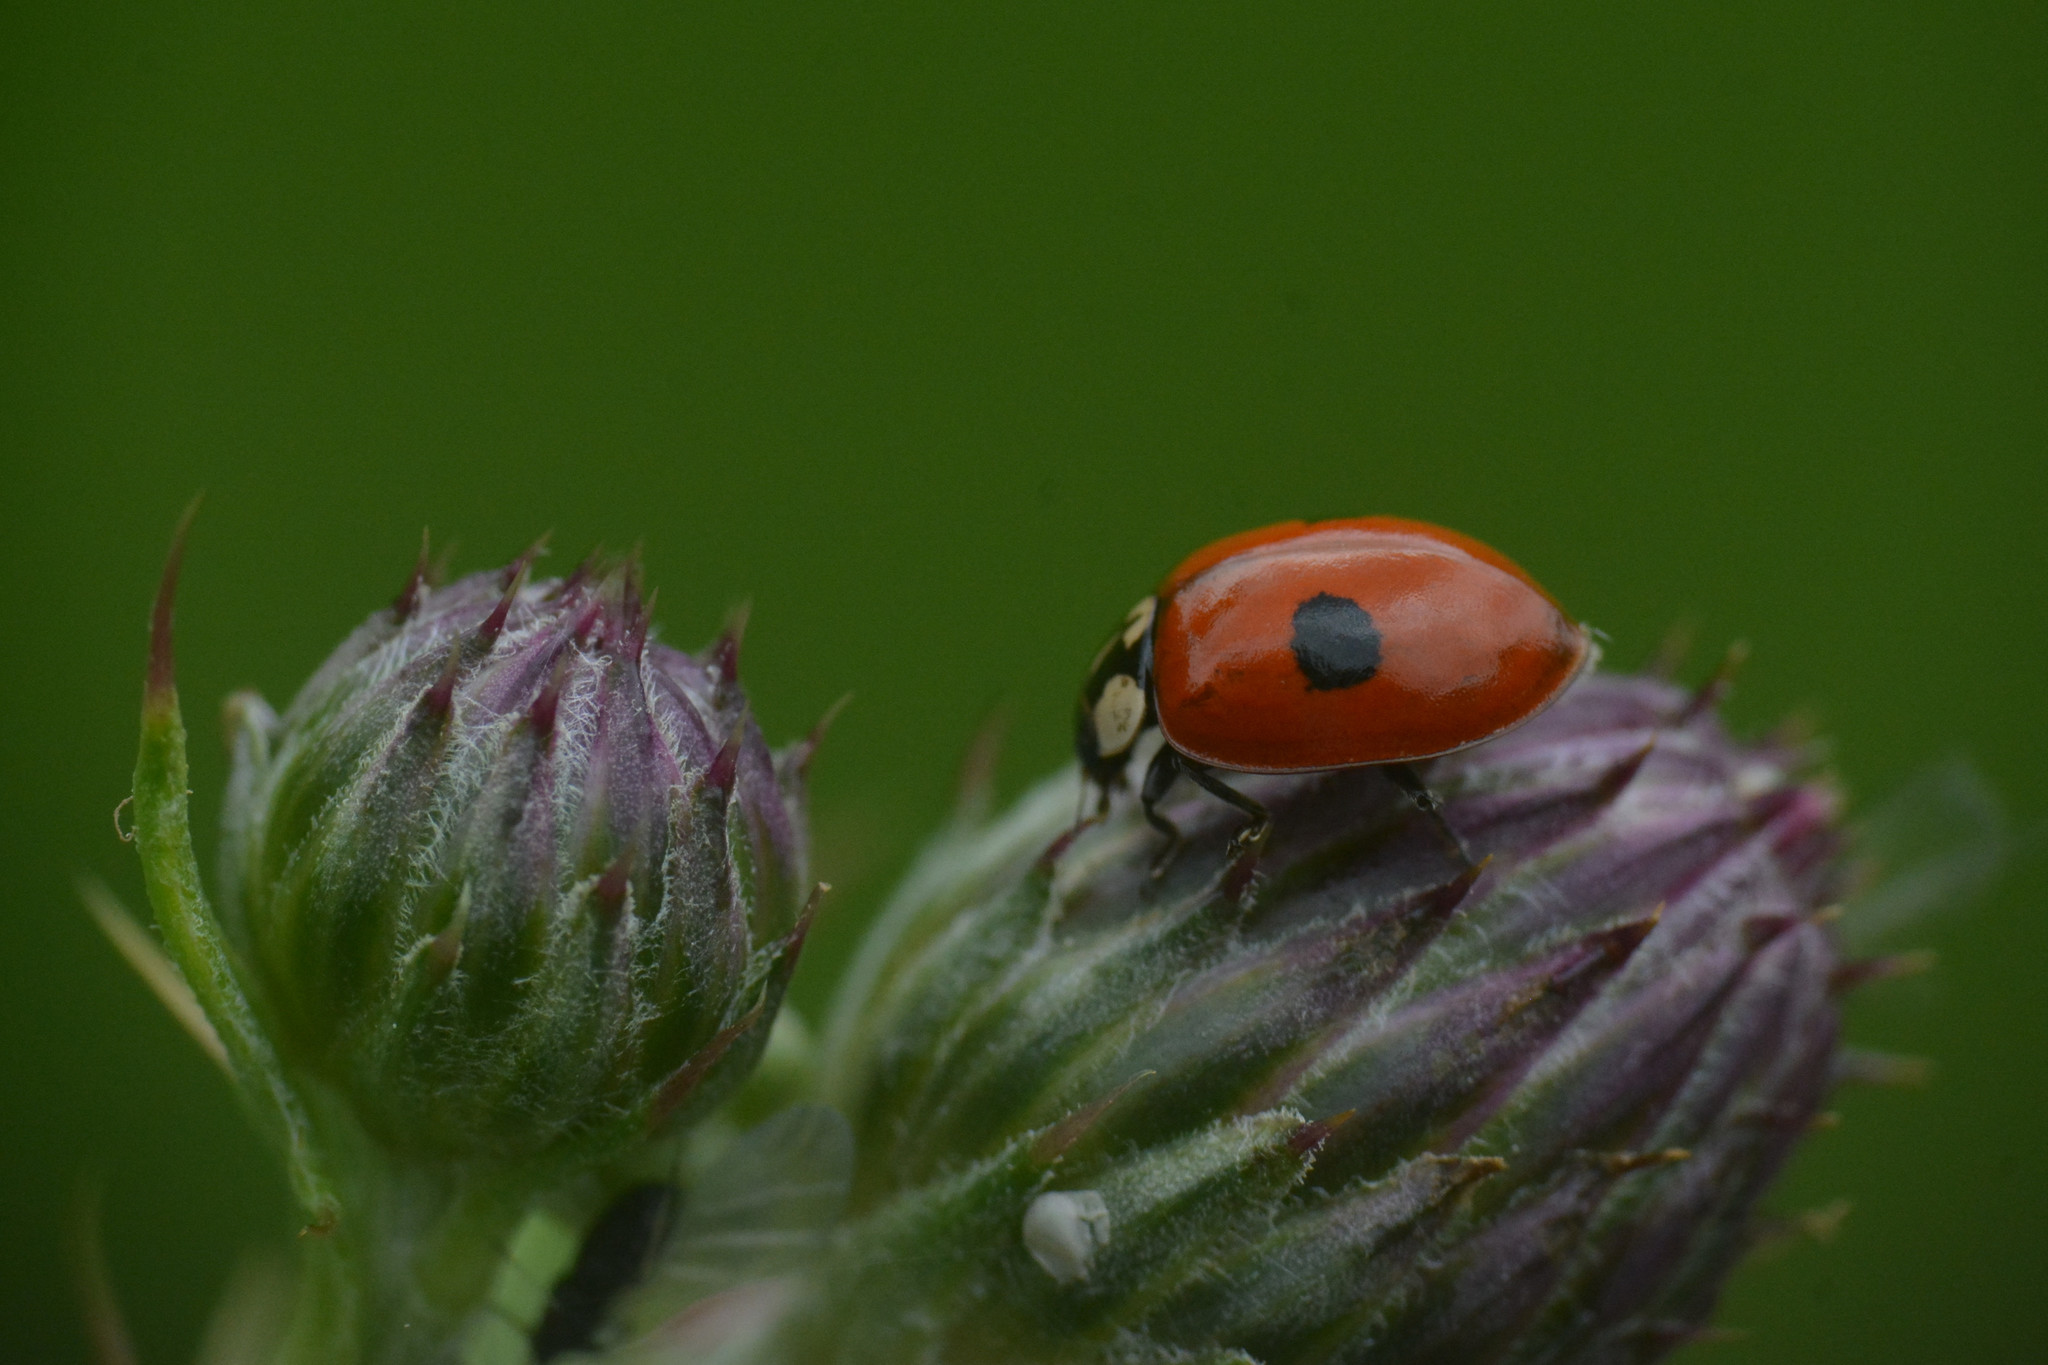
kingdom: Animalia
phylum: Arthropoda
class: Insecta
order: Coleoptera
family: Coccinellidae
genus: Adalia
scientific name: Adalia bipunctata
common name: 2-spot ladybird
